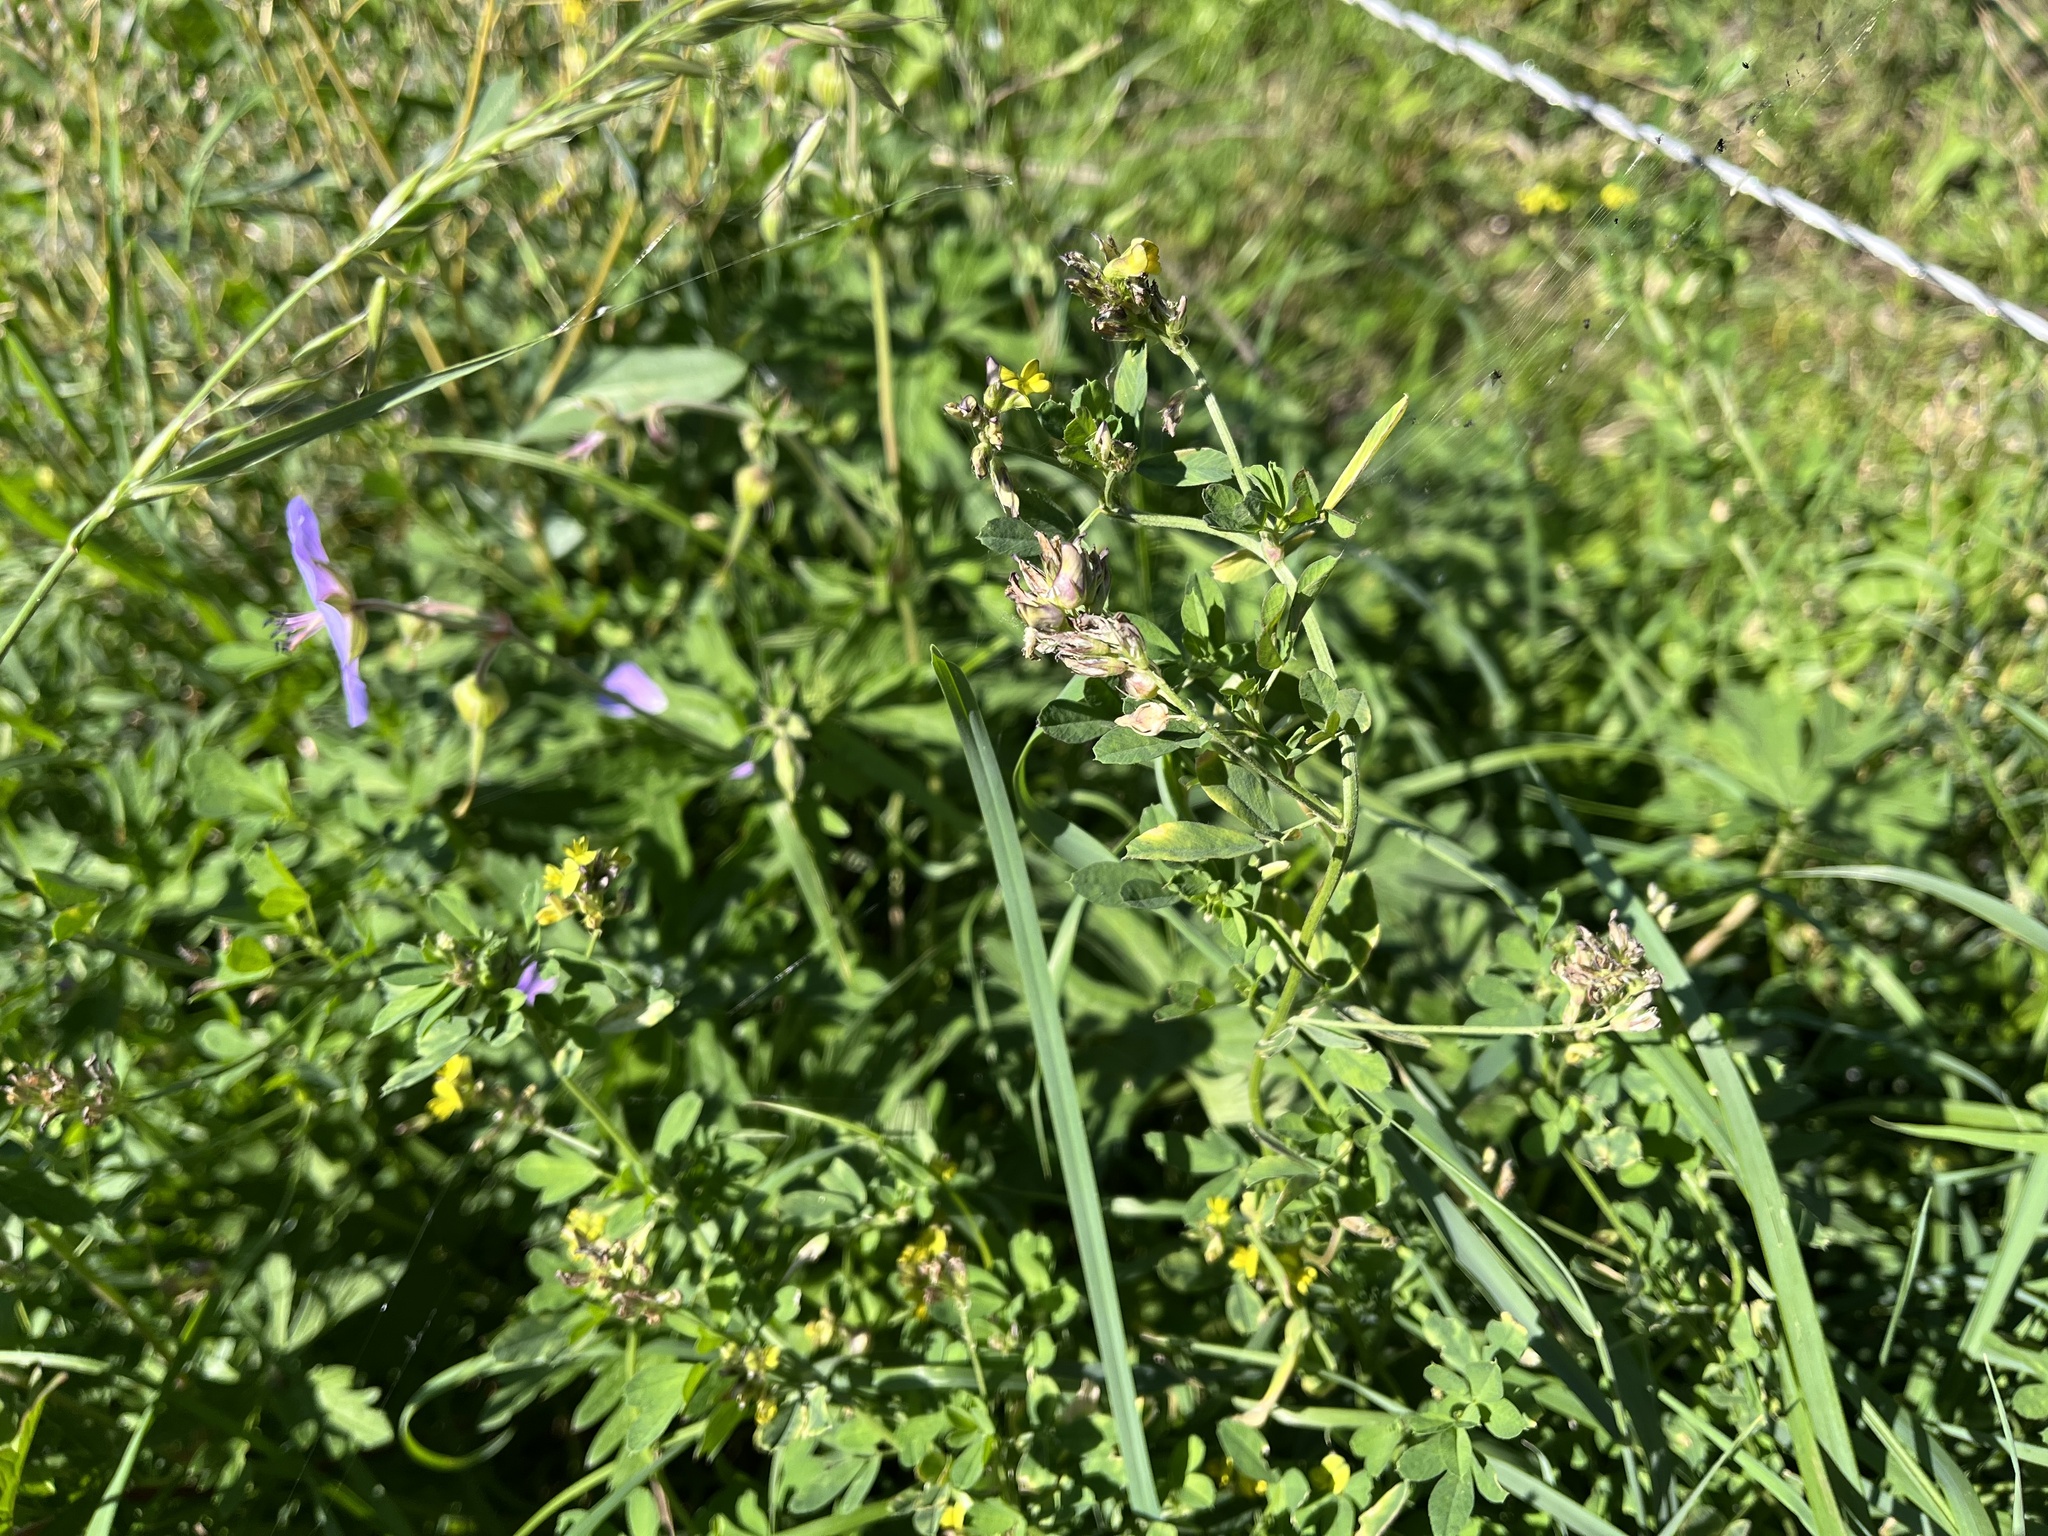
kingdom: Plantae
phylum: Tracheophyta
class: Magnoliopsida
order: Fabales
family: Fabaceae
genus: Medicago
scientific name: Medicago varia
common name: Sand lucerne
